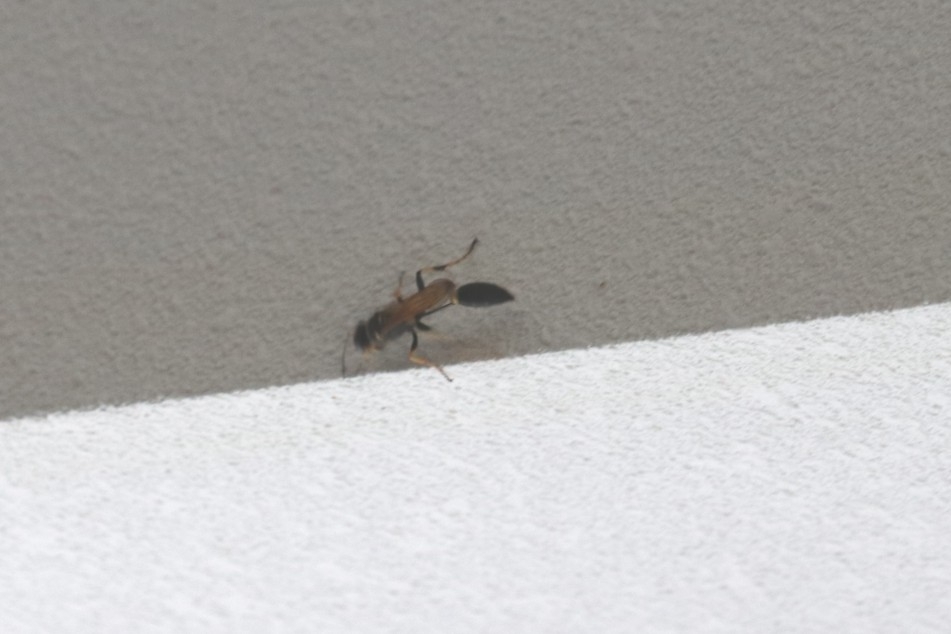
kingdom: Animalia
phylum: Arthropoda
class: Insecta
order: Hymenoptera
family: Sphecidae
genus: Sceliphron
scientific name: Sceliphron caementarium
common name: Mud dauber
